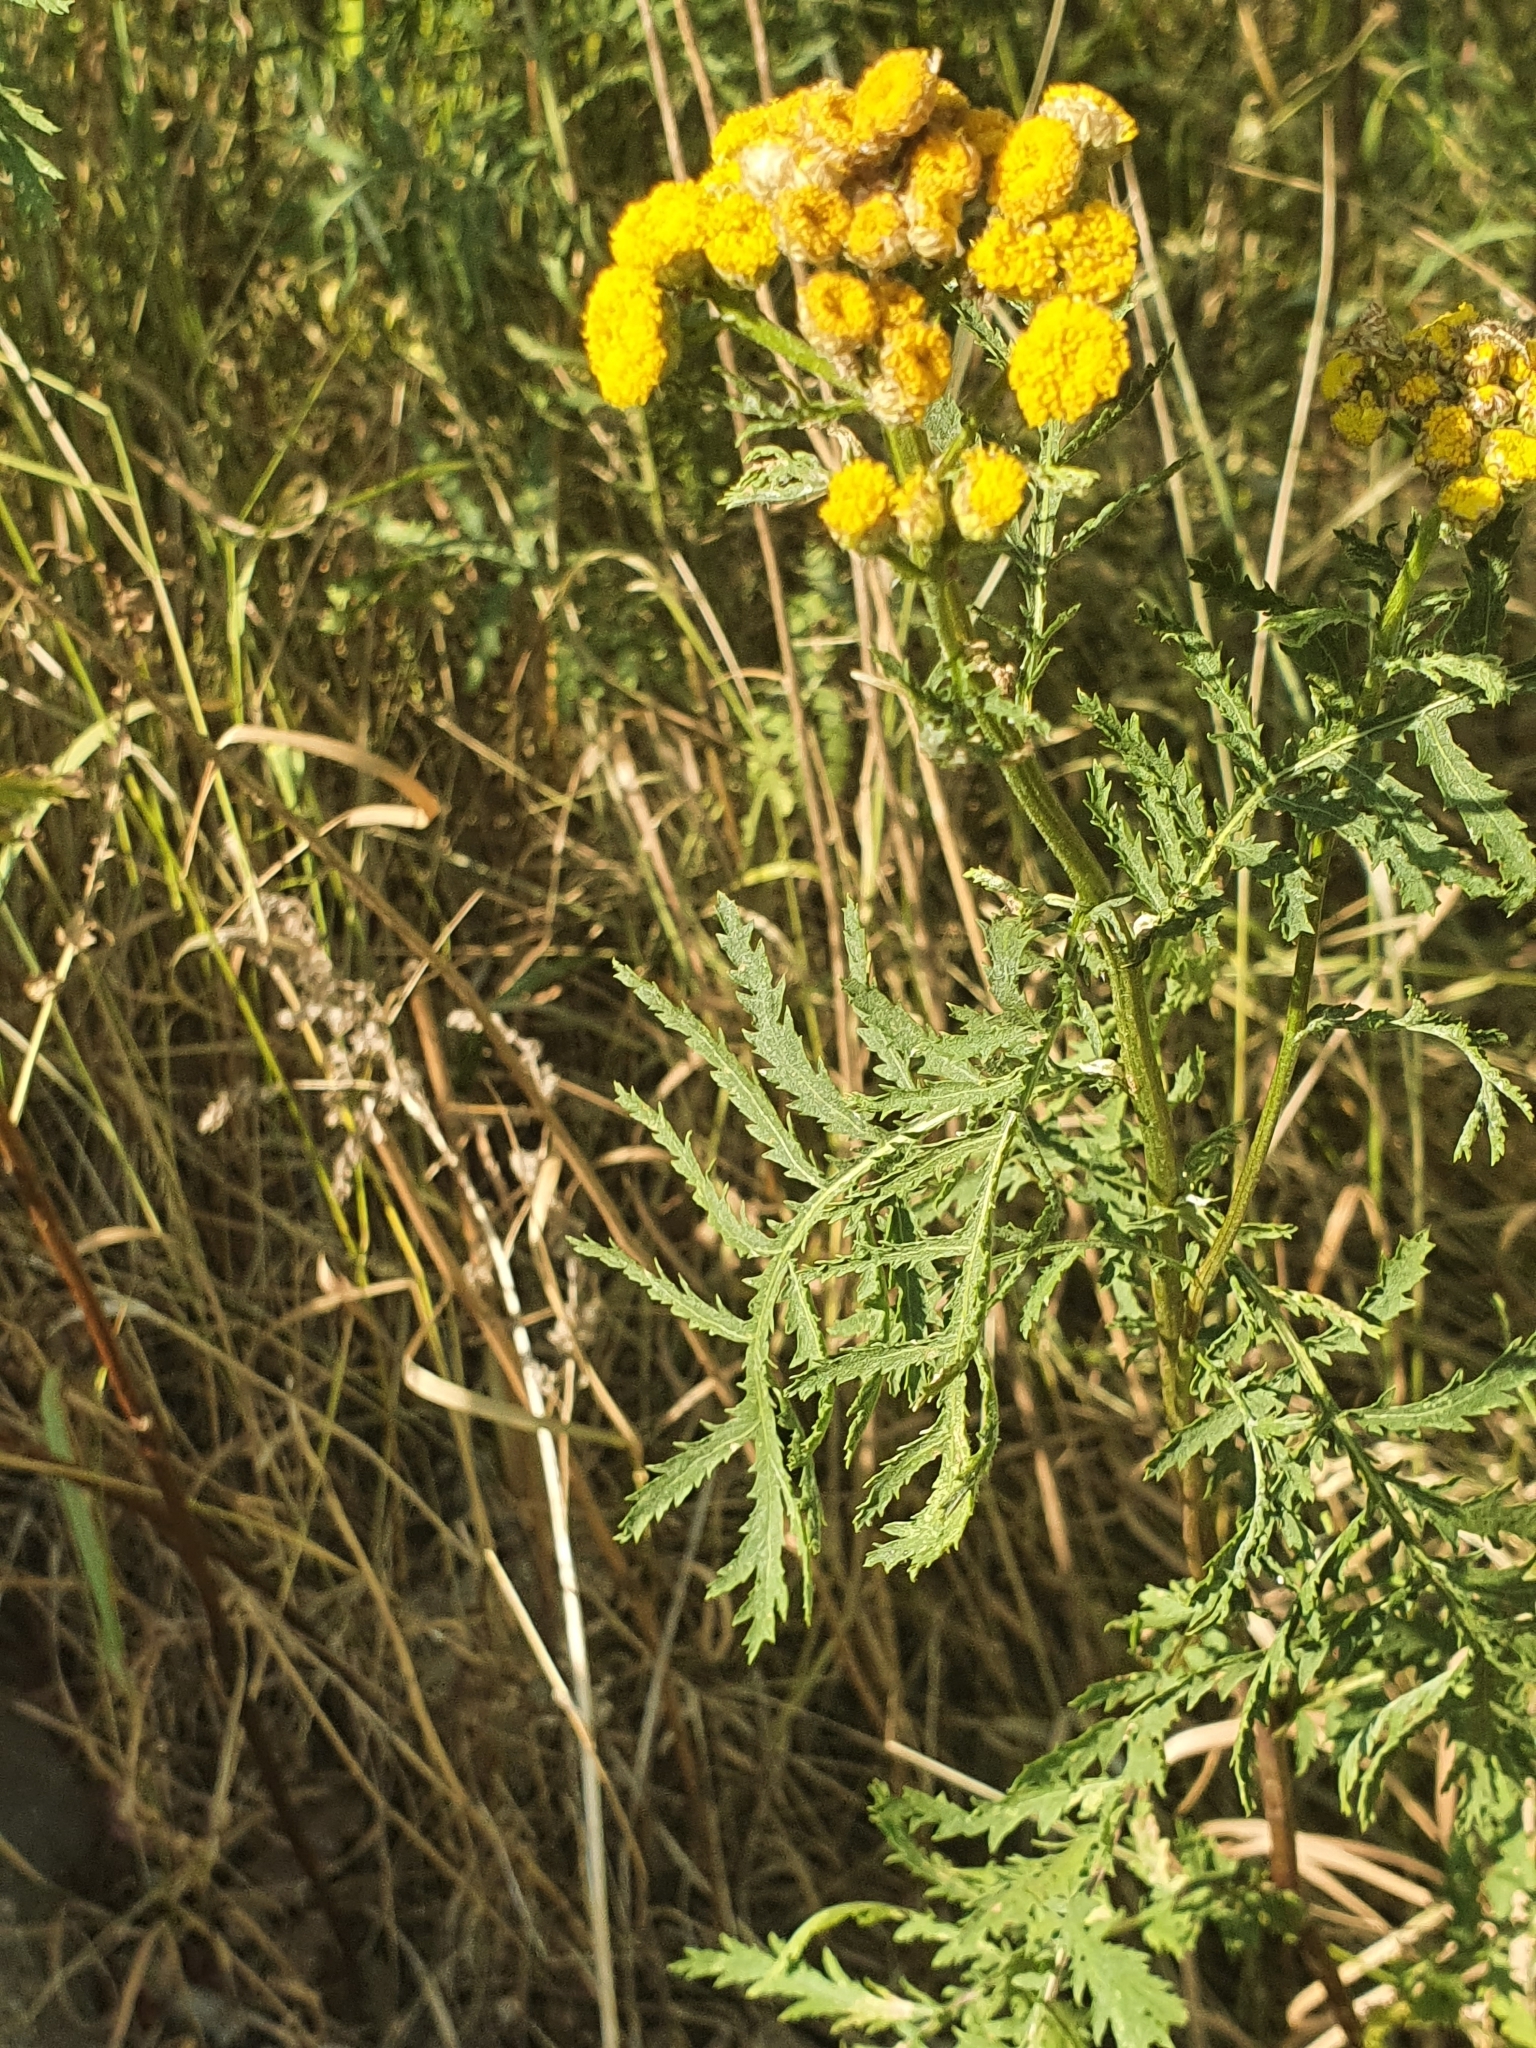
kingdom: Plantae
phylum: Tracheophyta
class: Magnoliopsida
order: Asterales
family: Asteraceae
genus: Tanacetum
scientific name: Tanacetum vulgare
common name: Common tansy
